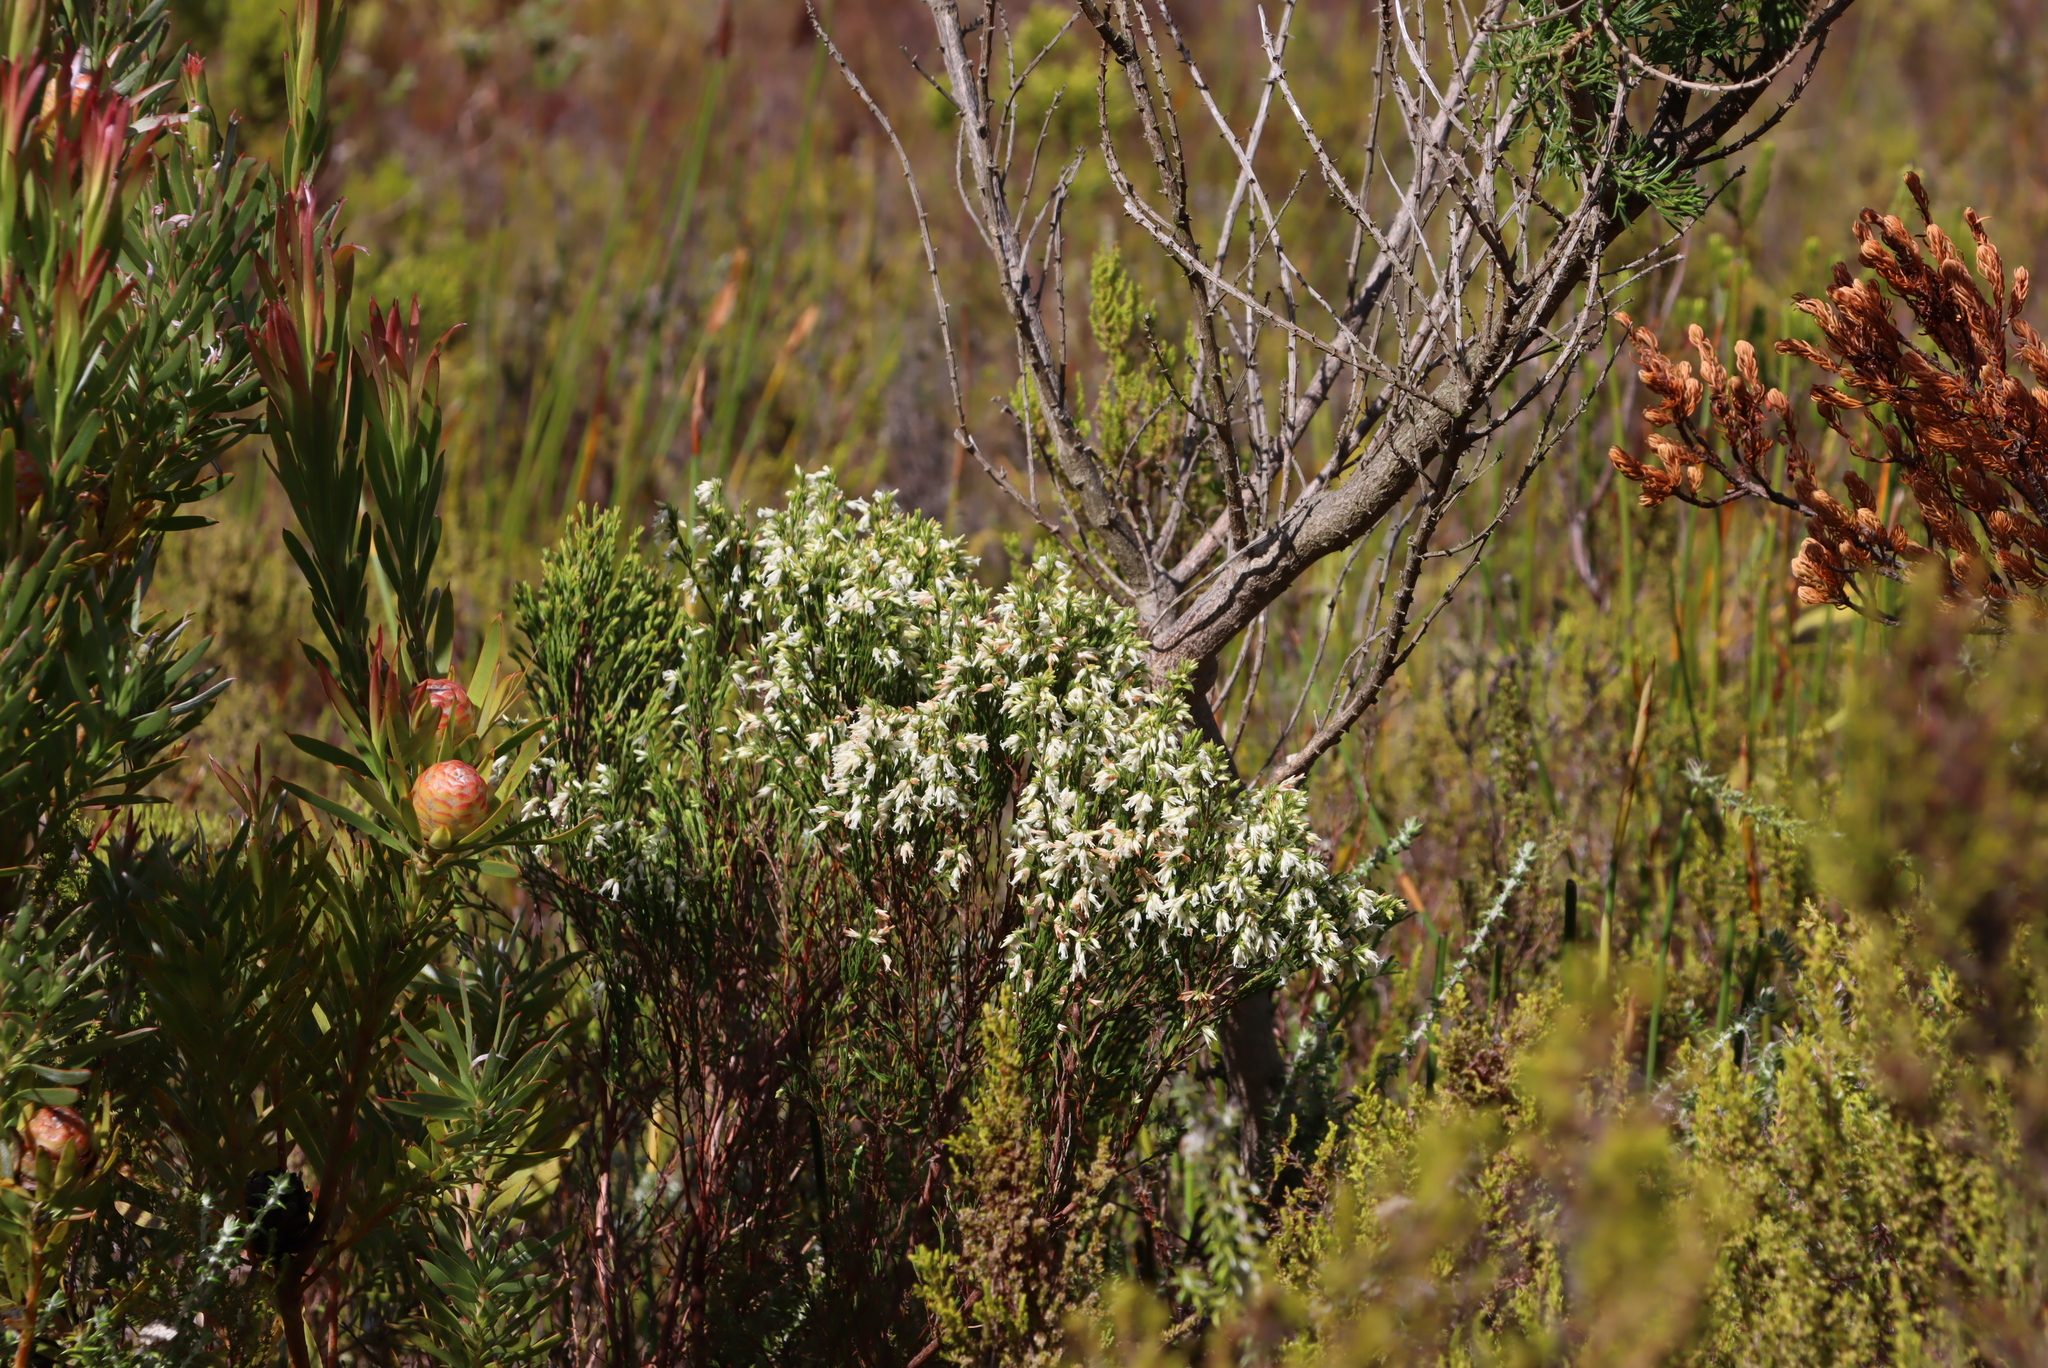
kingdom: Plantae
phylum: Tracheophyta
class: Magnoliopsida
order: Ericales
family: Ericaceae
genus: Erica
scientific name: Erica lutea
